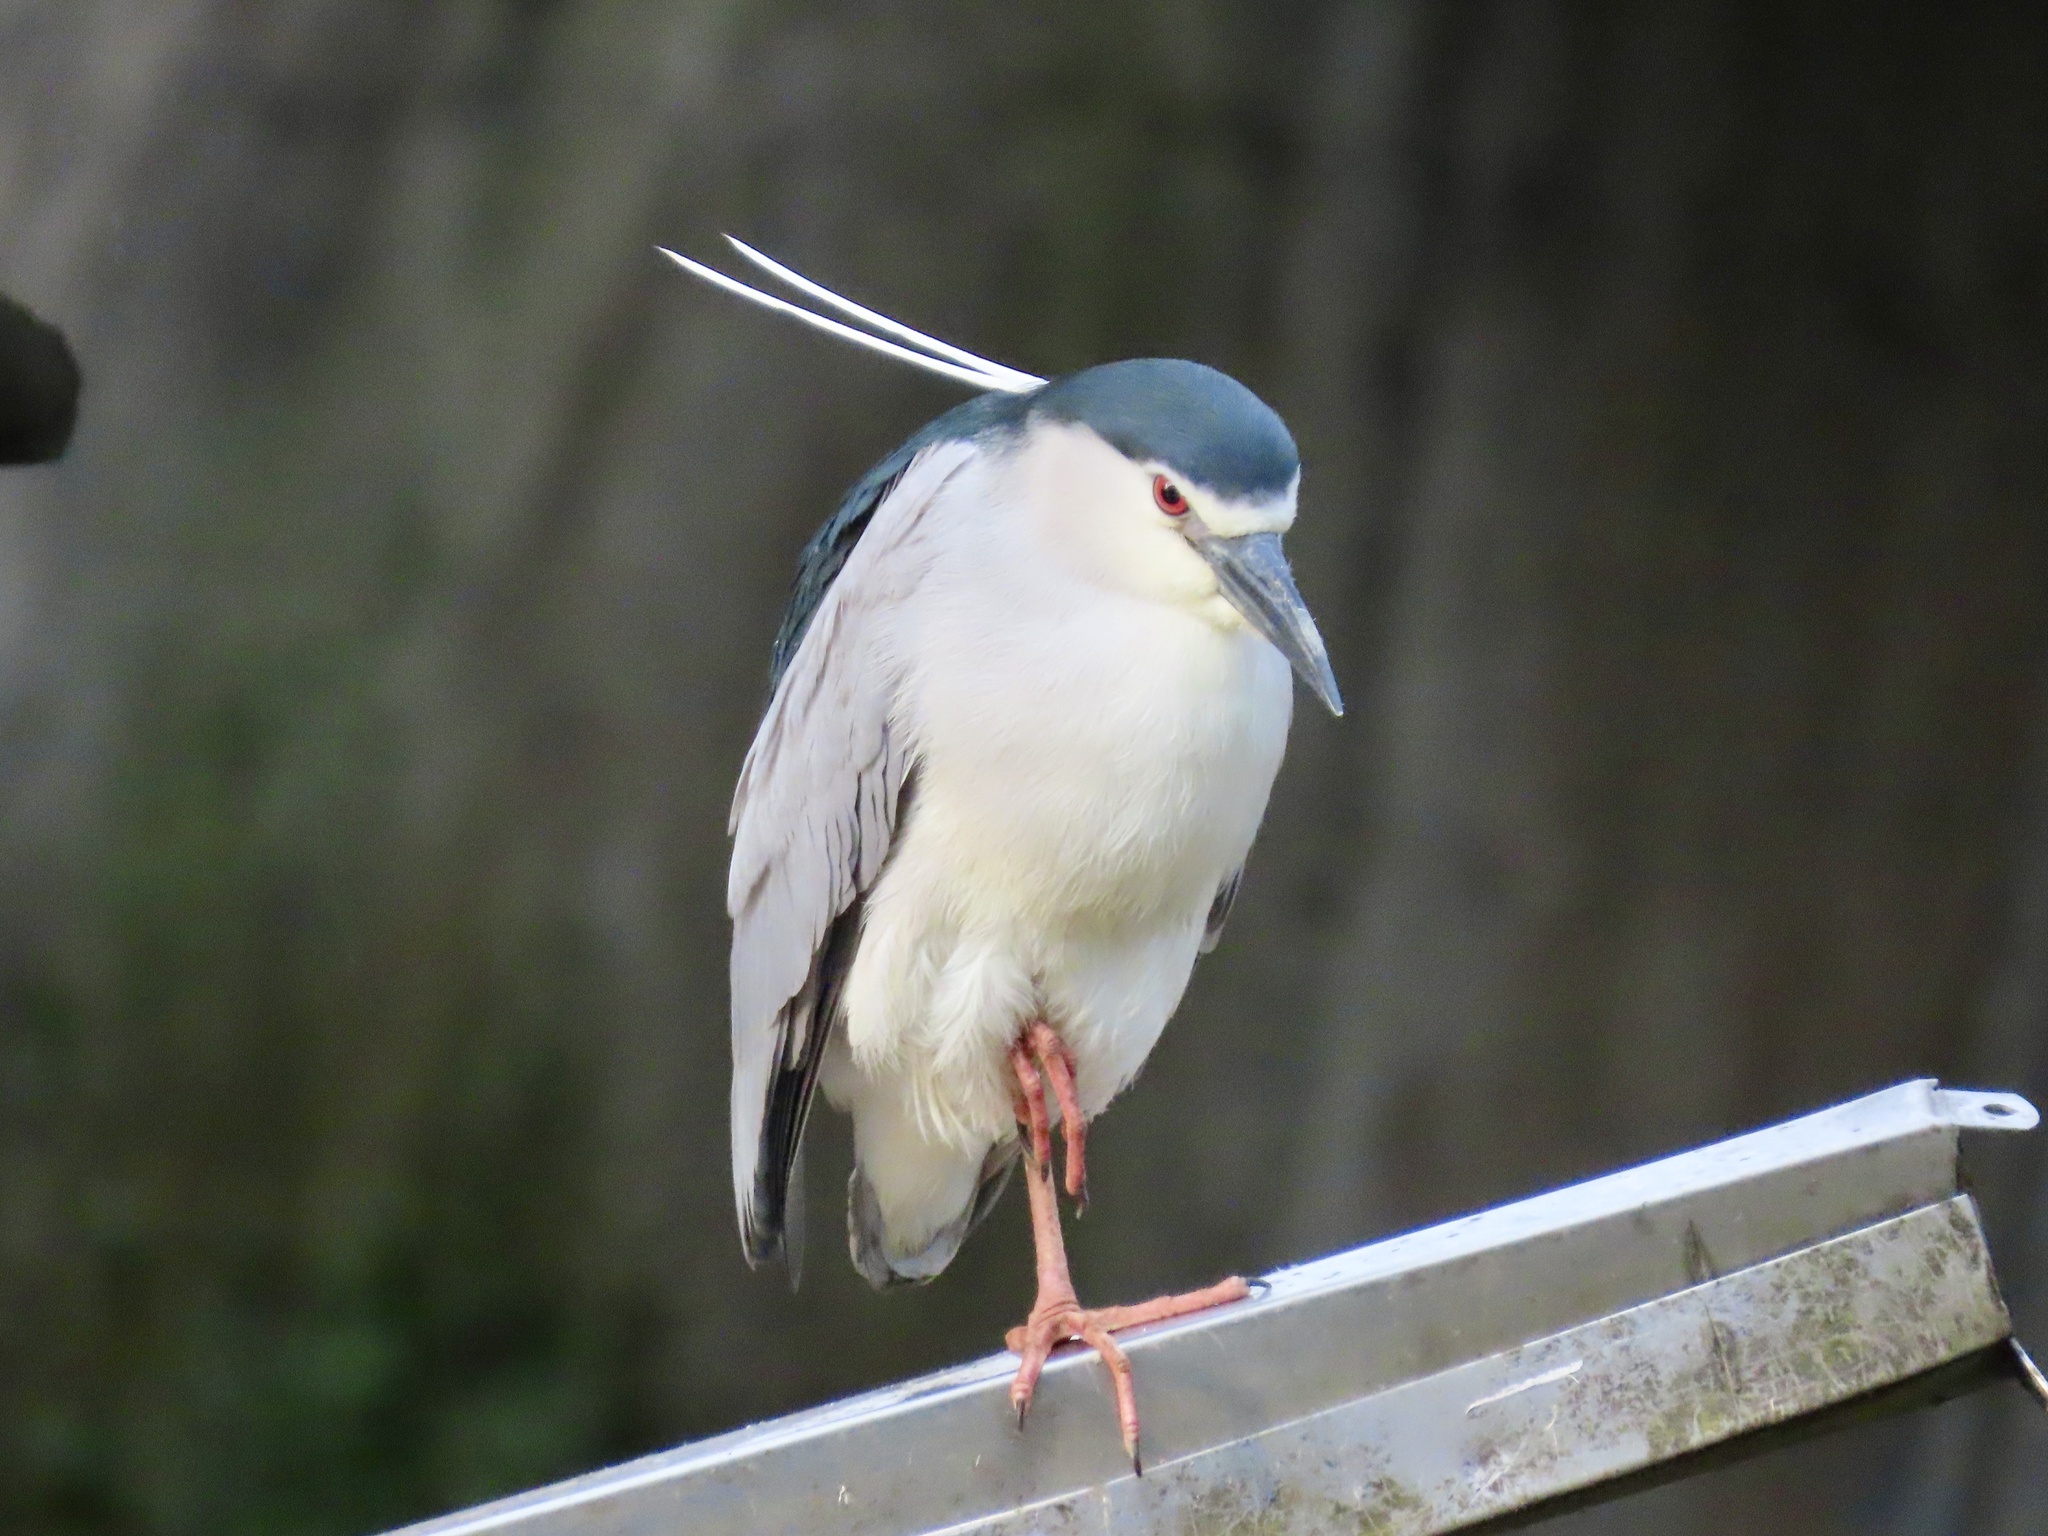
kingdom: Animalia
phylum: Chordata
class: Aves
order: Pelecaniformes
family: Ardeidae
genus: Nycticorax
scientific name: Nycticorax nycticorax
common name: Black-crowned night heron
